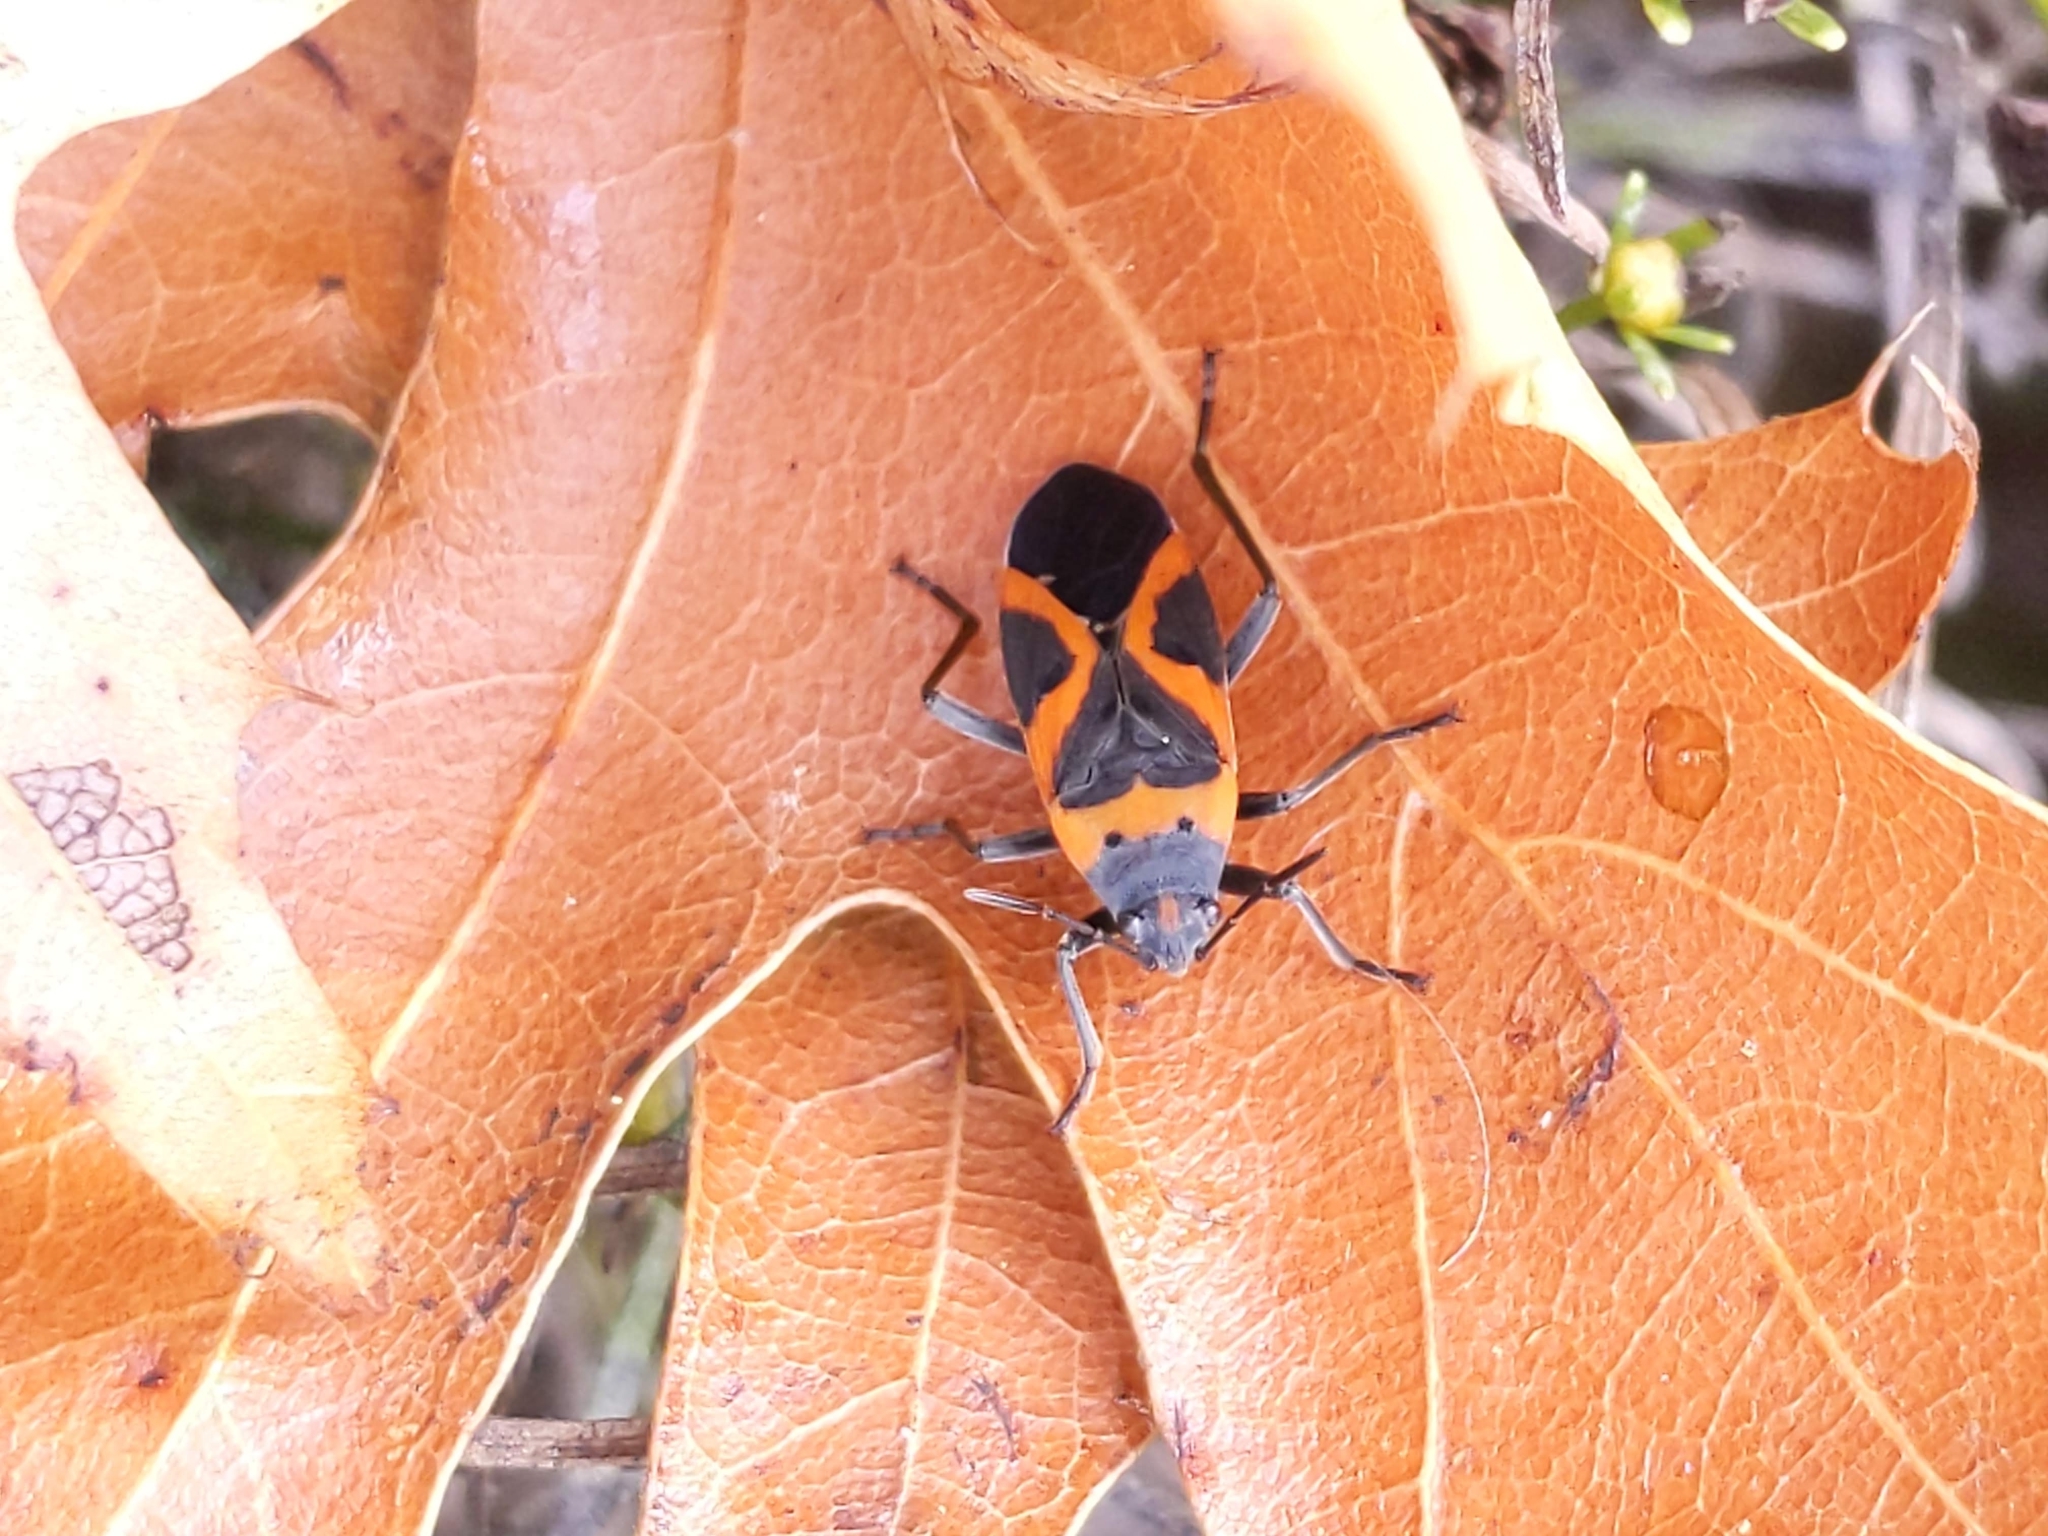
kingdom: Animalia
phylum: Arthropoda
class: Insecta
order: Hemiptera
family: Lygaeidae
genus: Lygaeus
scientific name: Lygaeus kalmii
